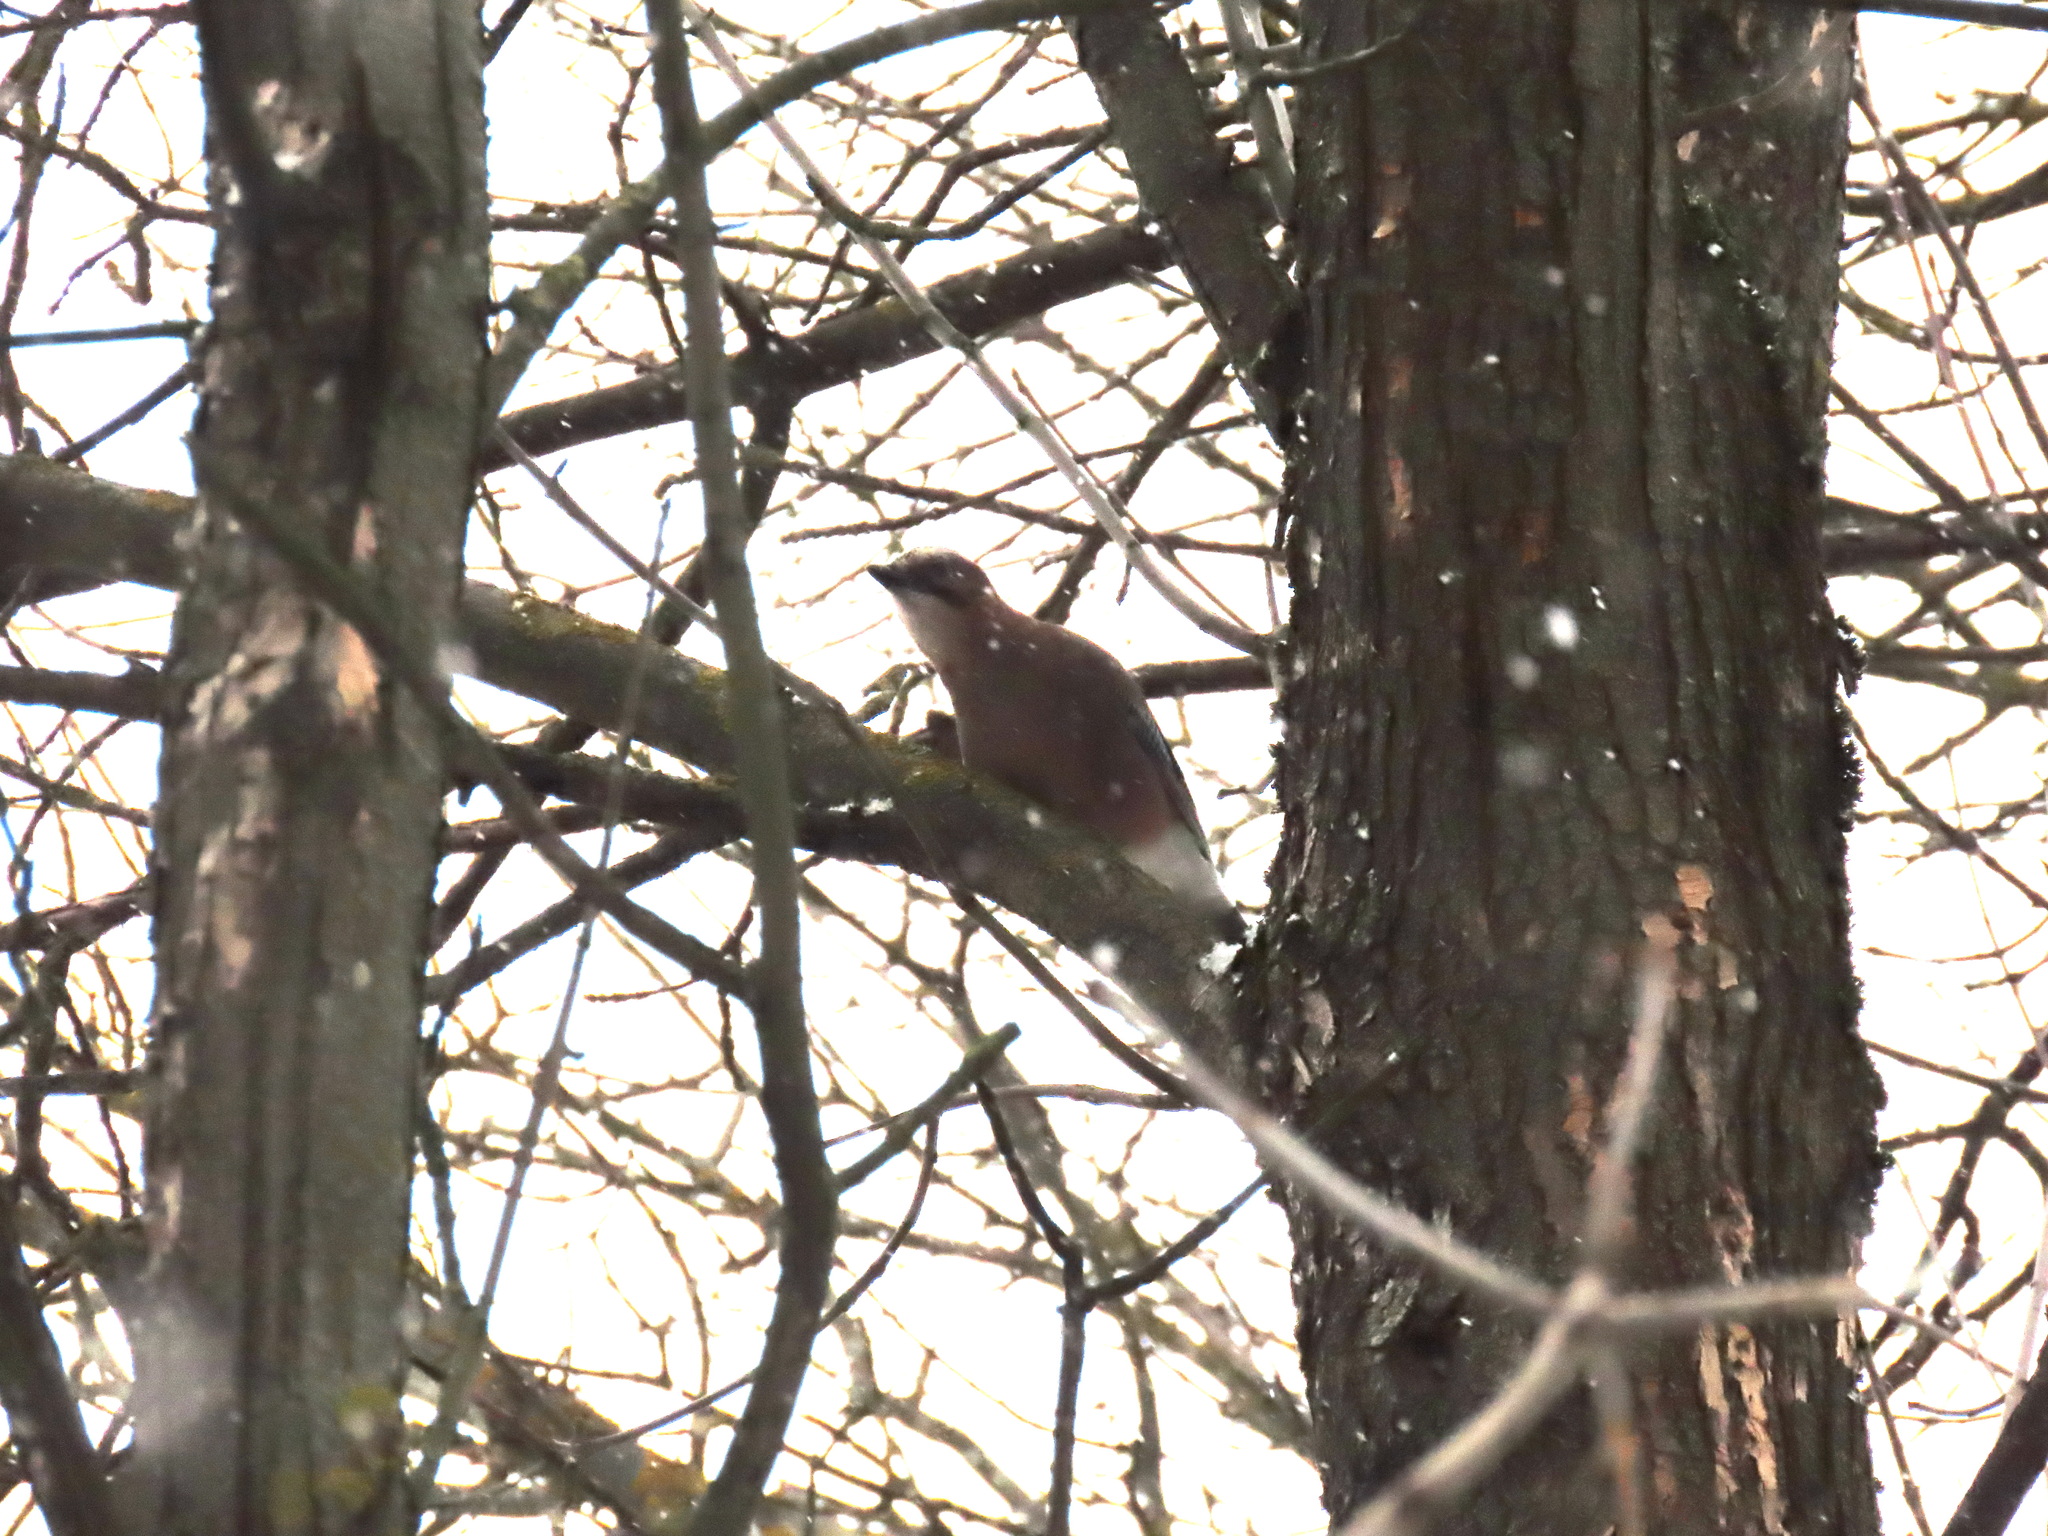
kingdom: Animalia
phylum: Chordata
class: Aves
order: Passeriformes
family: Corvidae
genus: Garrulus
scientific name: Garrulus glandarius
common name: Eurasian jay
